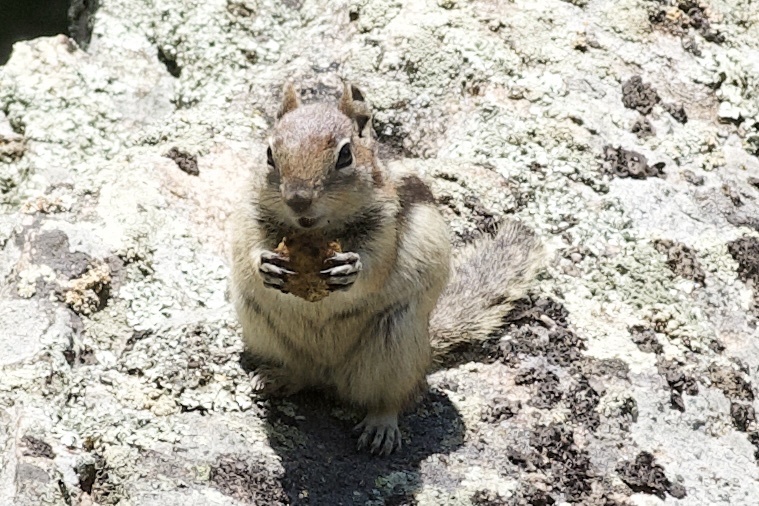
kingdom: Animalia
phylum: Chordata
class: Mammalia
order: Rodentia
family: Sciuridae
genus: Callospermophilus
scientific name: Callospermophilus lateralis
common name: Golden-mantled ground squirrel
